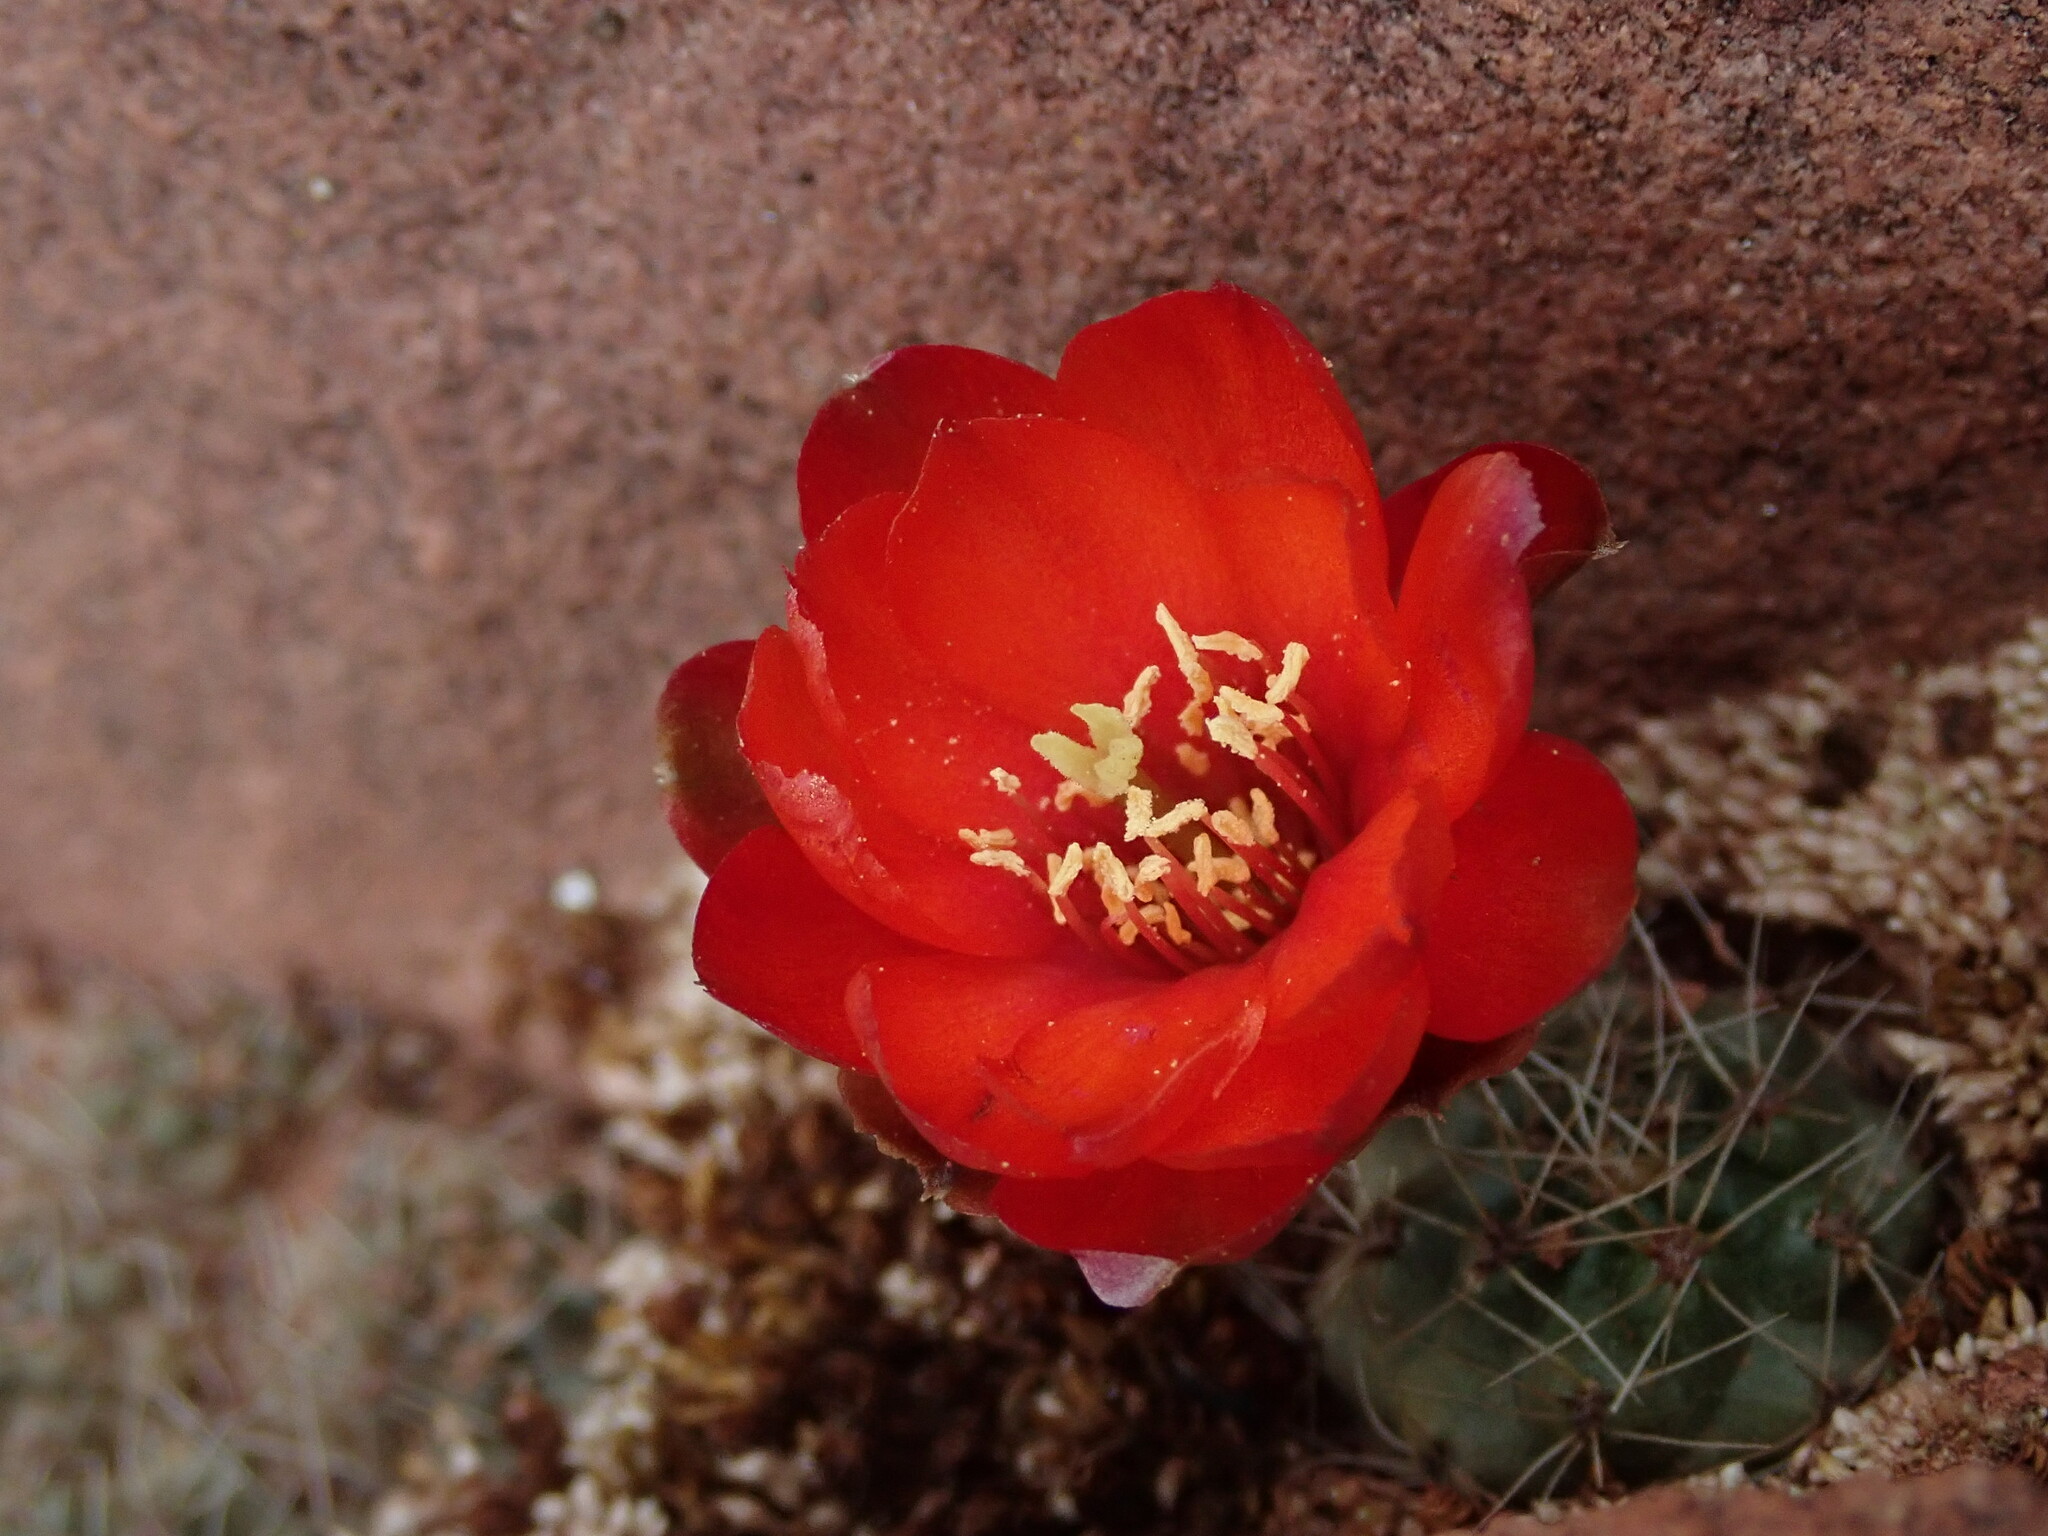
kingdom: Plantae
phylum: Tracheophyta
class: Magnoliopsida
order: Caryophyllales
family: Cactaceae
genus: Aylostera
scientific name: Aylostera pygmaea
